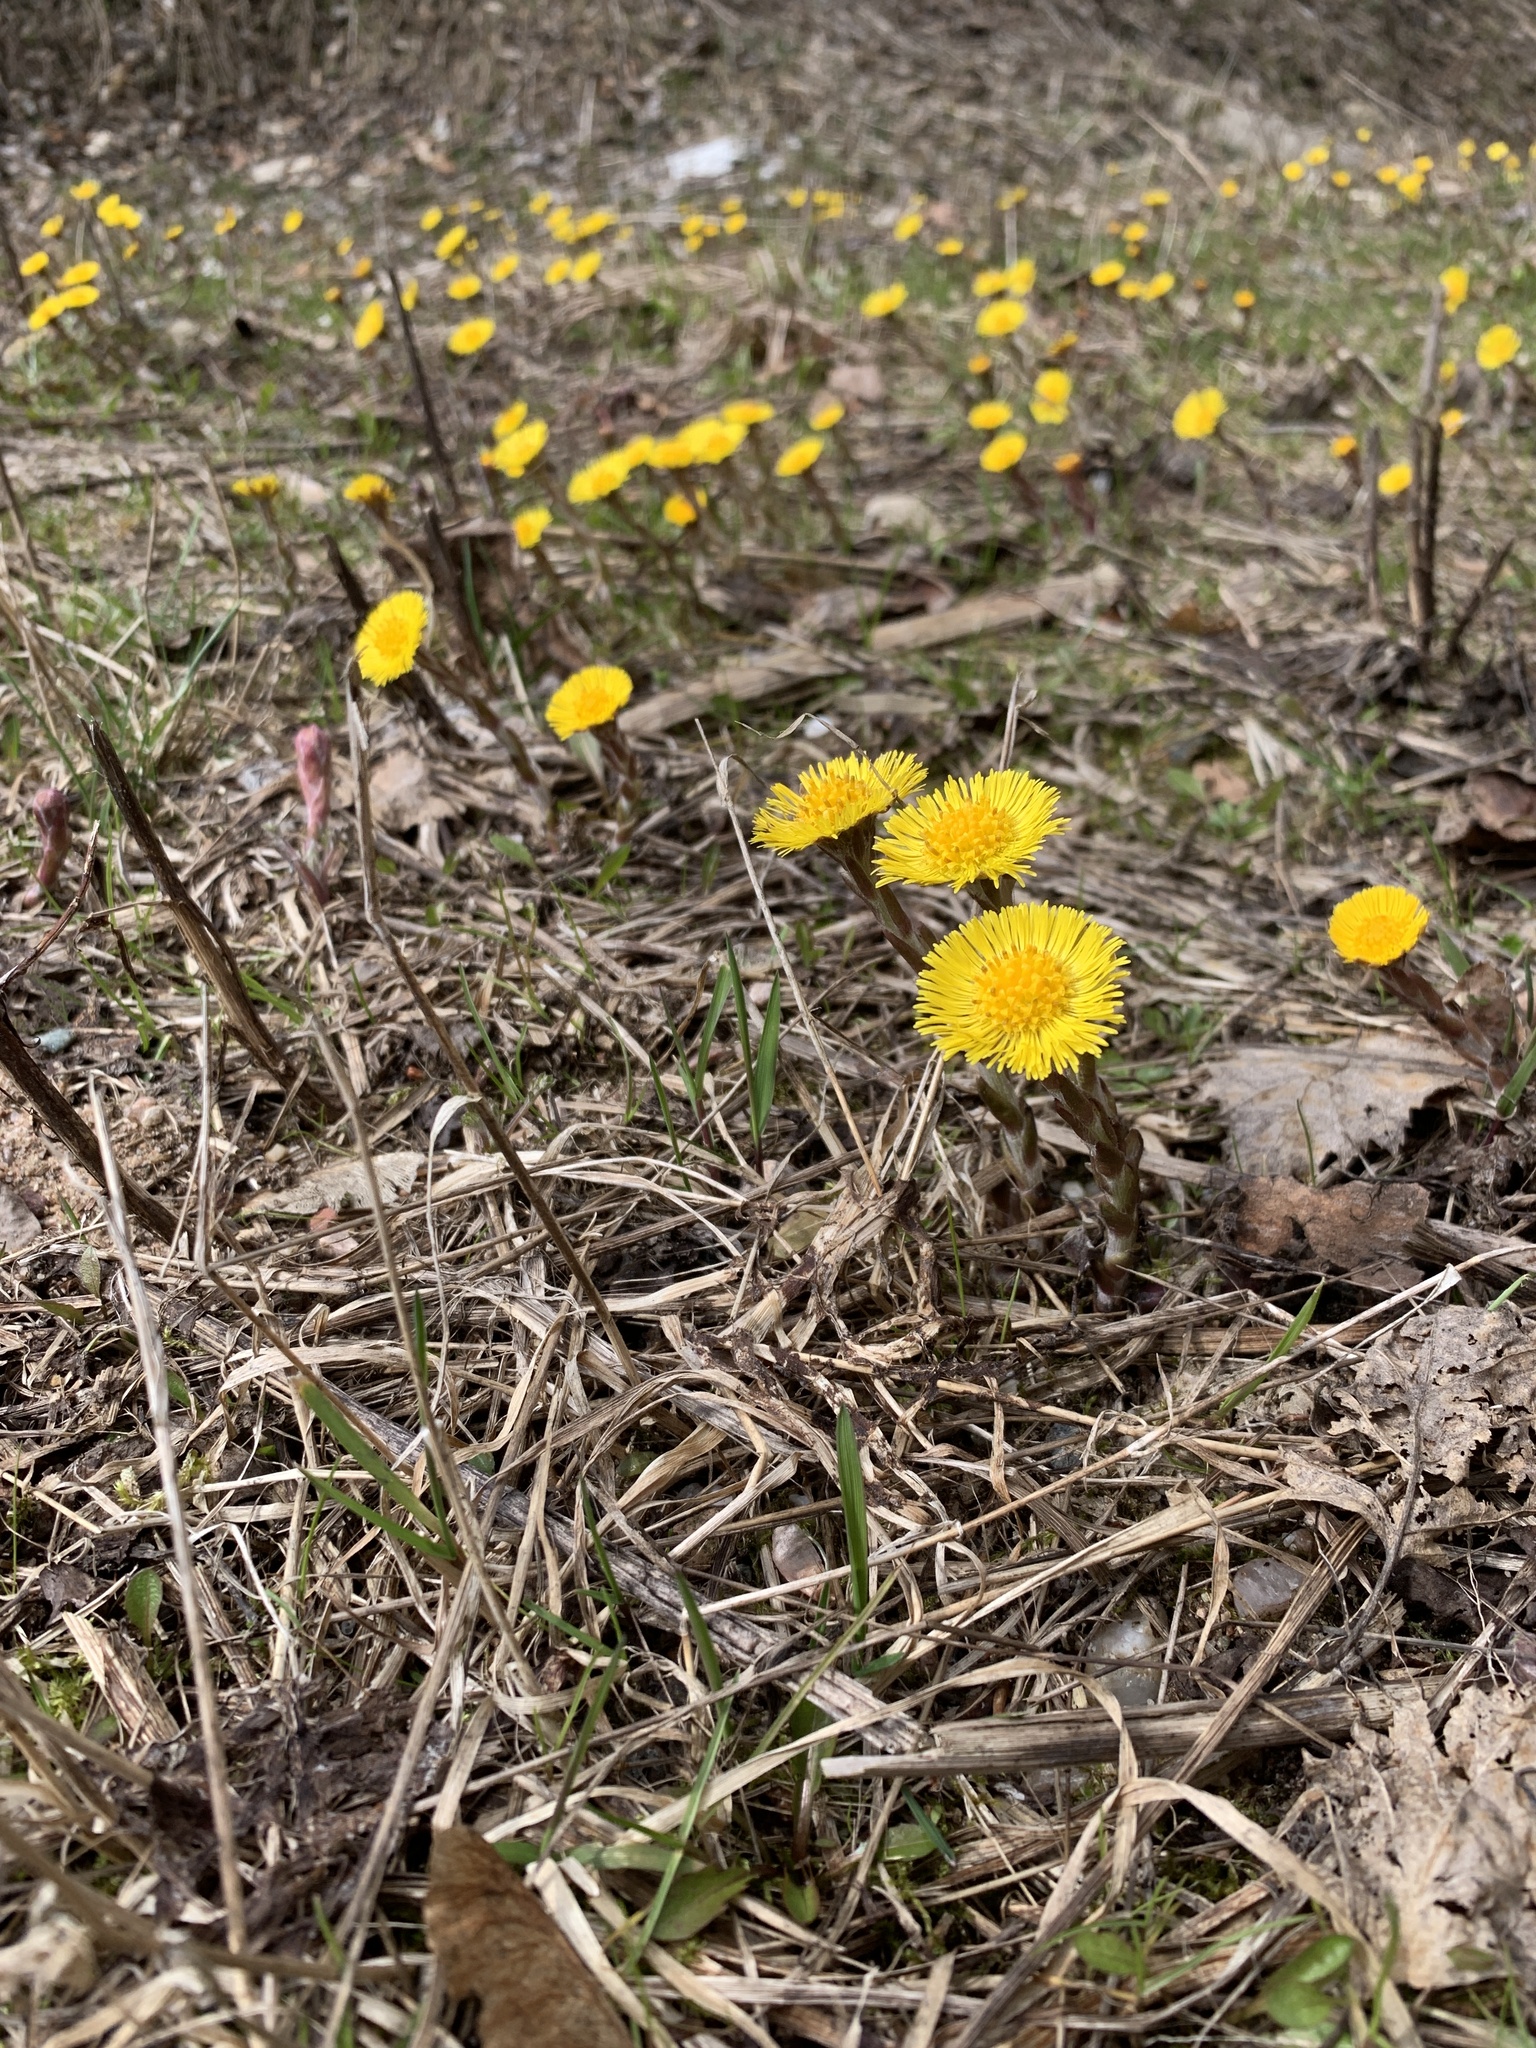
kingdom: Plantae
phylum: Tracheophyta
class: Magnoliopsida
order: Asterales
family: Asteraceae
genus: Tussilago
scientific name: Tussilago farfara
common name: Coltsfoot
